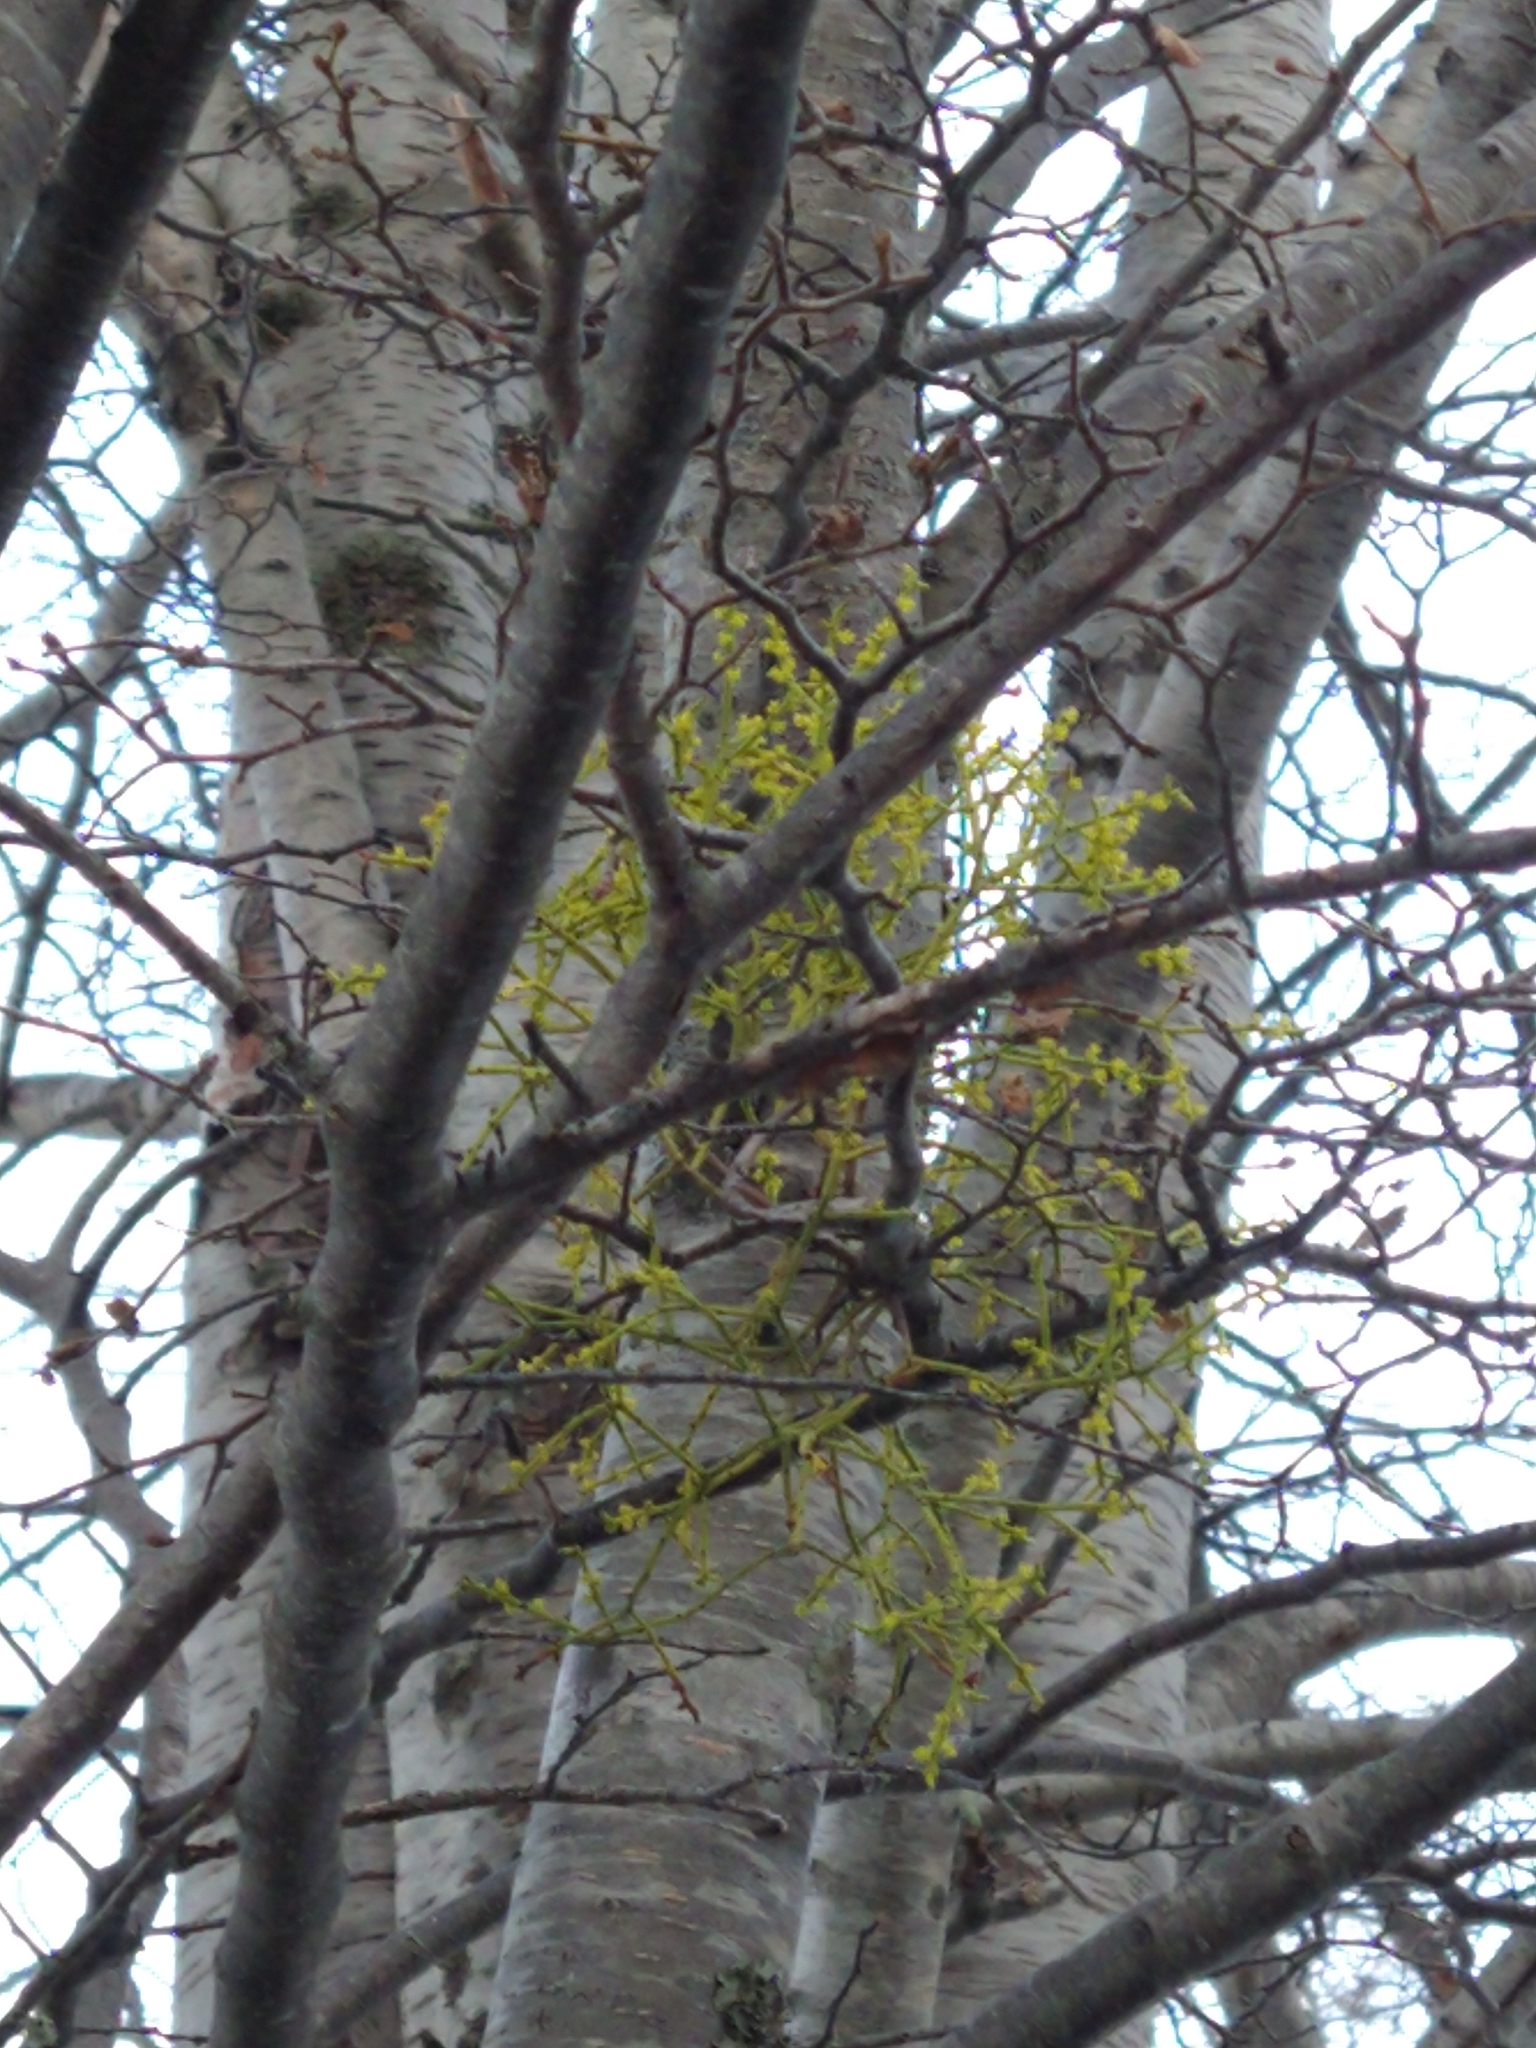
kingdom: Plantae
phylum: Tracheophyta
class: Magnoliopsida
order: Santalales
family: Misodendraceae
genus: Misodendrum
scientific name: Misodendrum punctulatum
